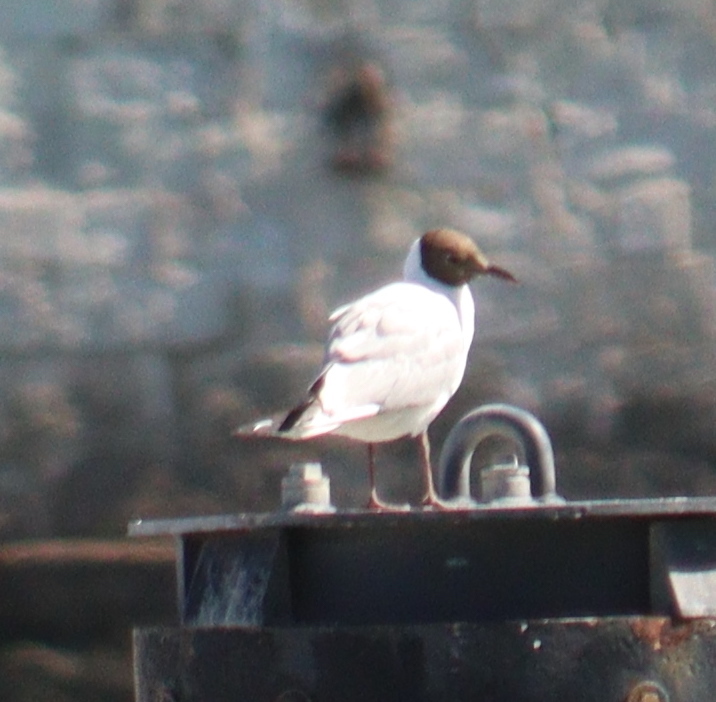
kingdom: Animalia
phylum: Chordata
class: Aves
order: Charadriiformes
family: Laridae
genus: Chroicocephalus
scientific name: Chroicocephalus ridibundus
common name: Black-headed gull
